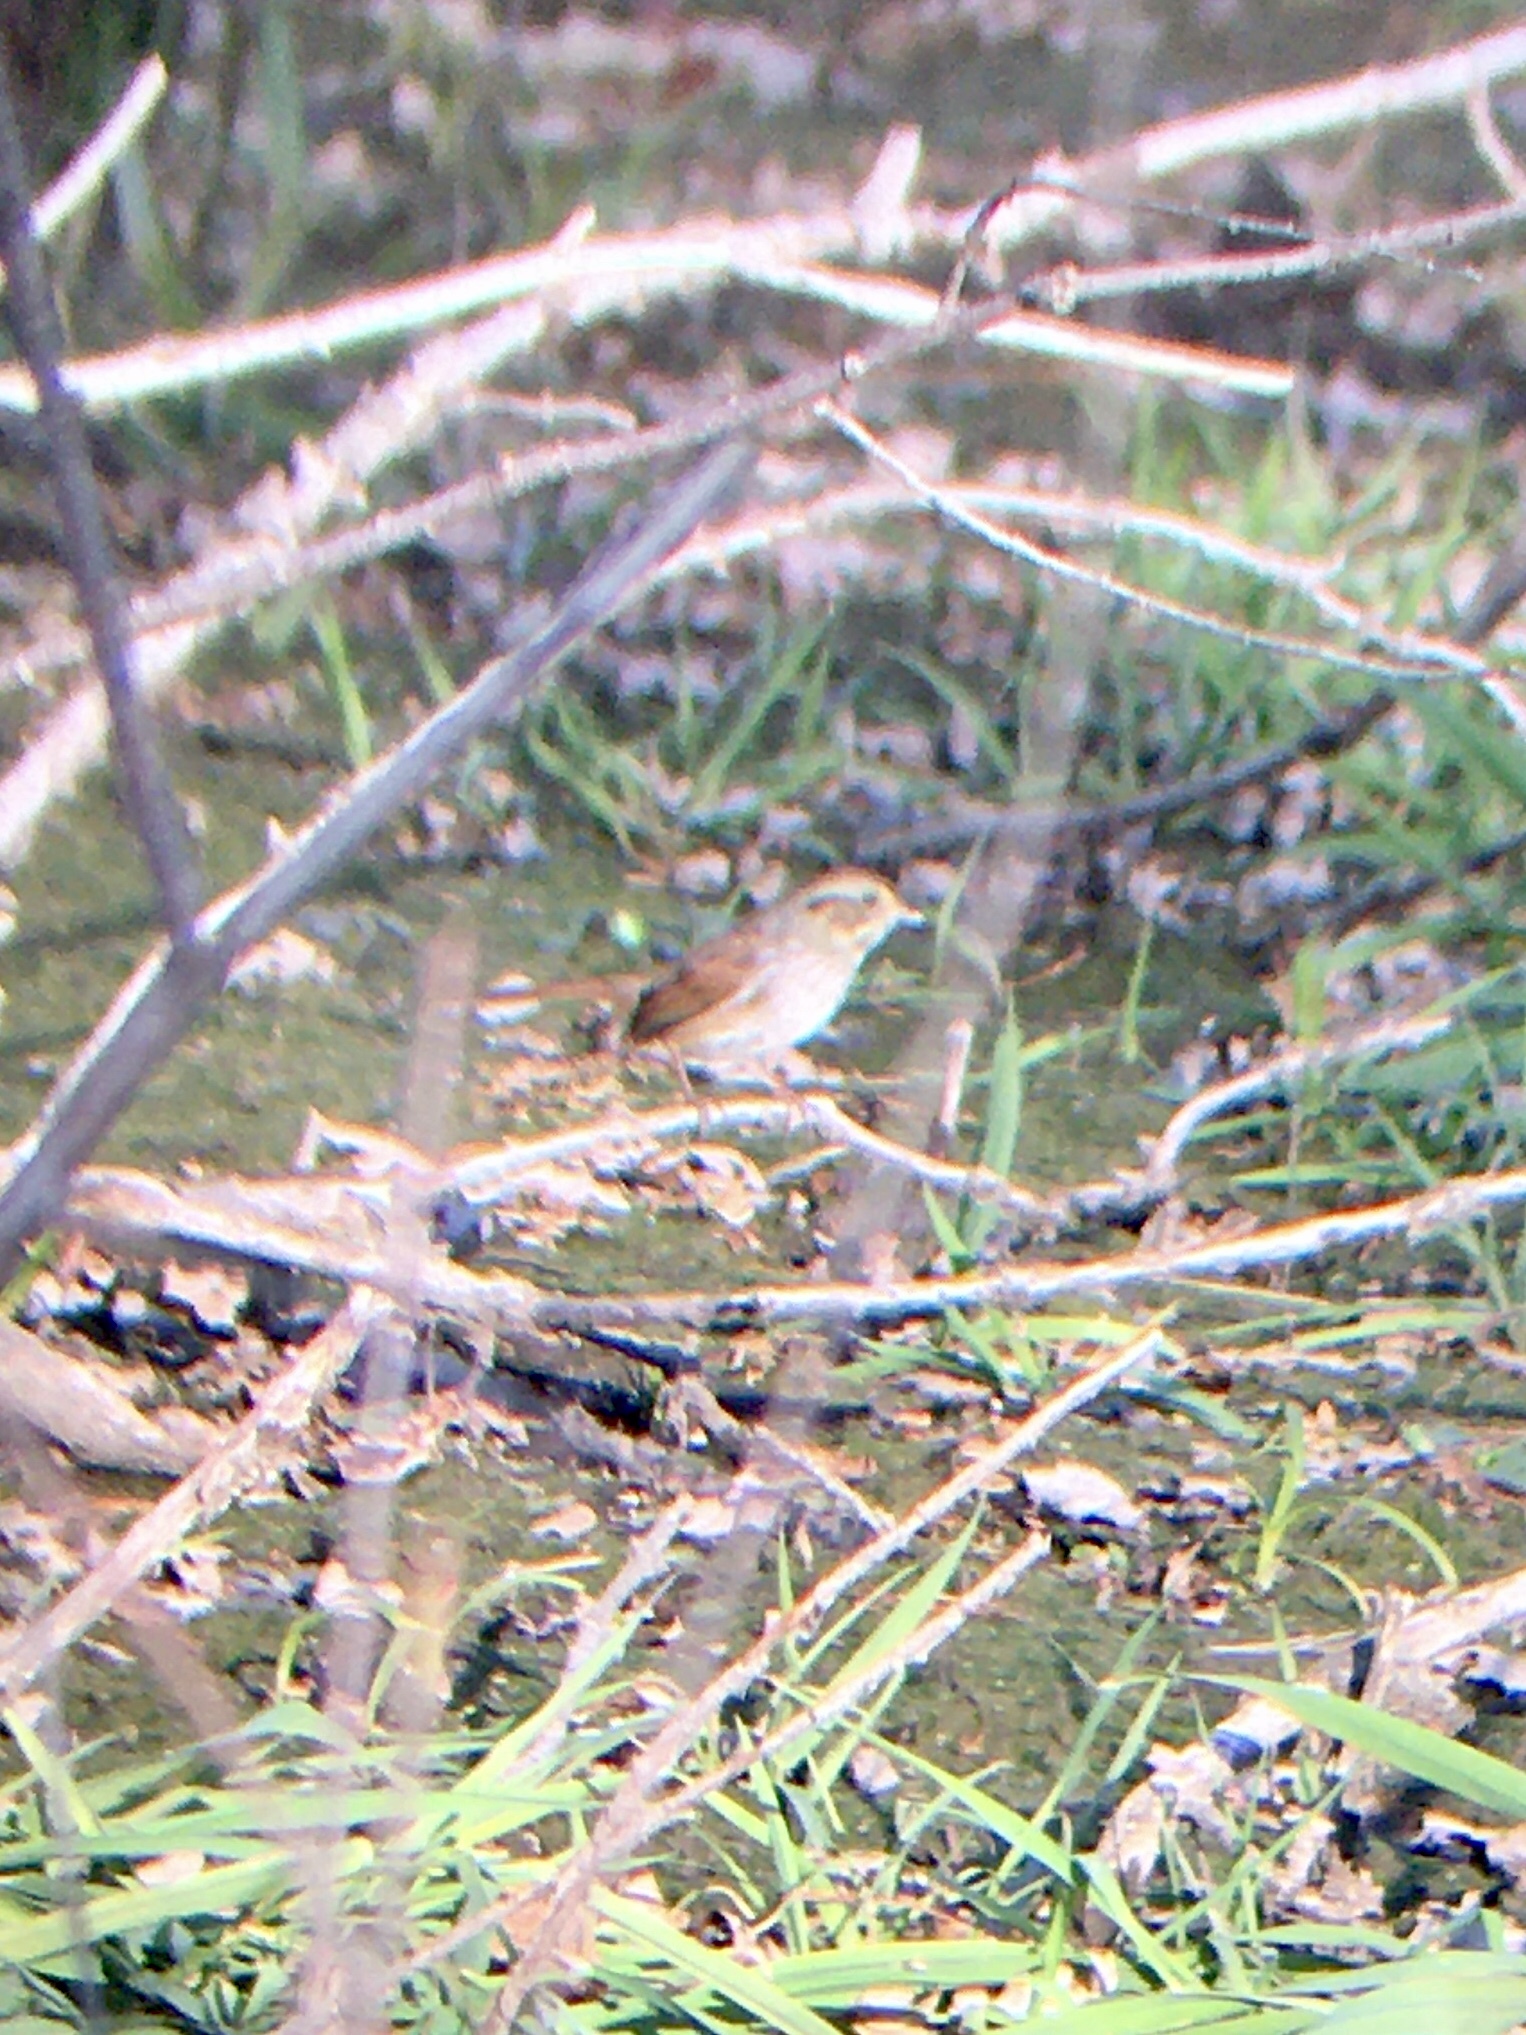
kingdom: Animalia
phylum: Chordata
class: Aves
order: Passeriformes
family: Passerellidae
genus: Melospiza
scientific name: Melospiza georgiana
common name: Swamp sparrow
